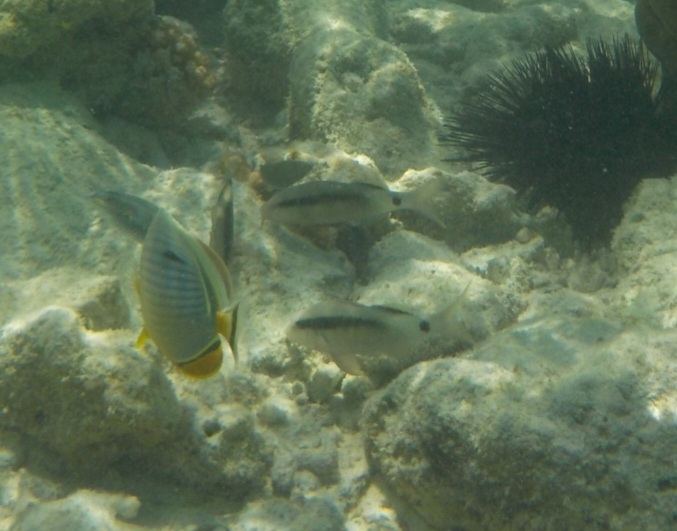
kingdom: Animalia
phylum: Chordata
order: Perciformes
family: Mullidae
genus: Parupeneus
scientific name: Parupeneus macronemus
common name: Long-barbel goatfish
